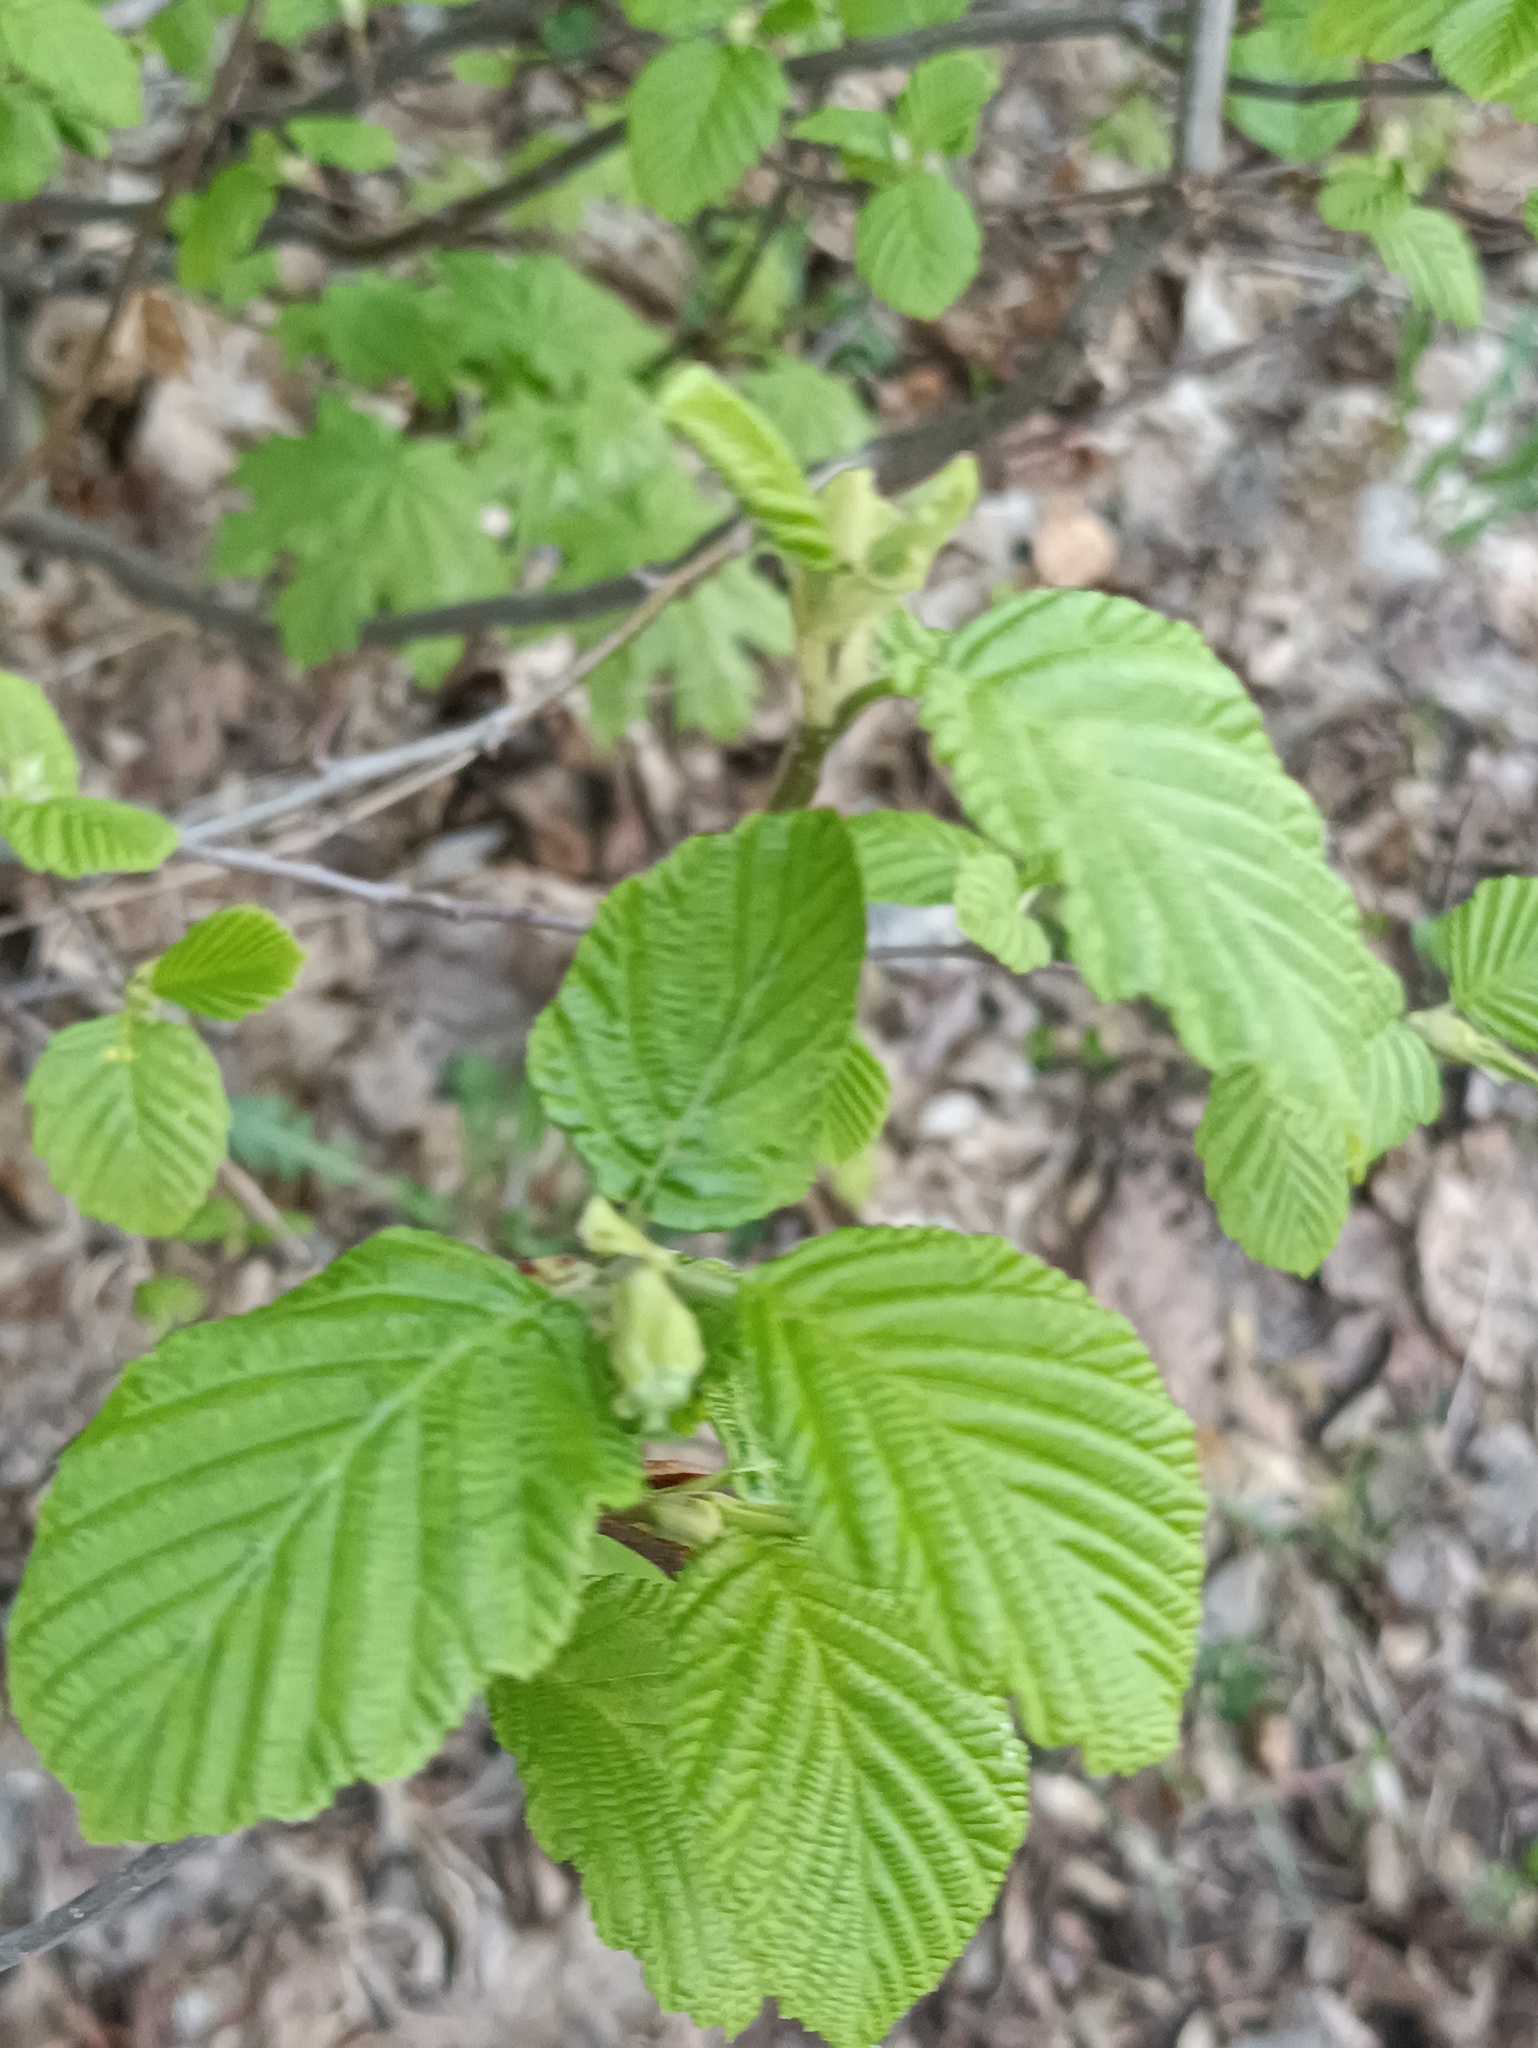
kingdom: Plantae
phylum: Tracheophyta
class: Magnoliopsida
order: Fagales
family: Betulaceae
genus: Alnus
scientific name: Alnus incana
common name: Grey alder
